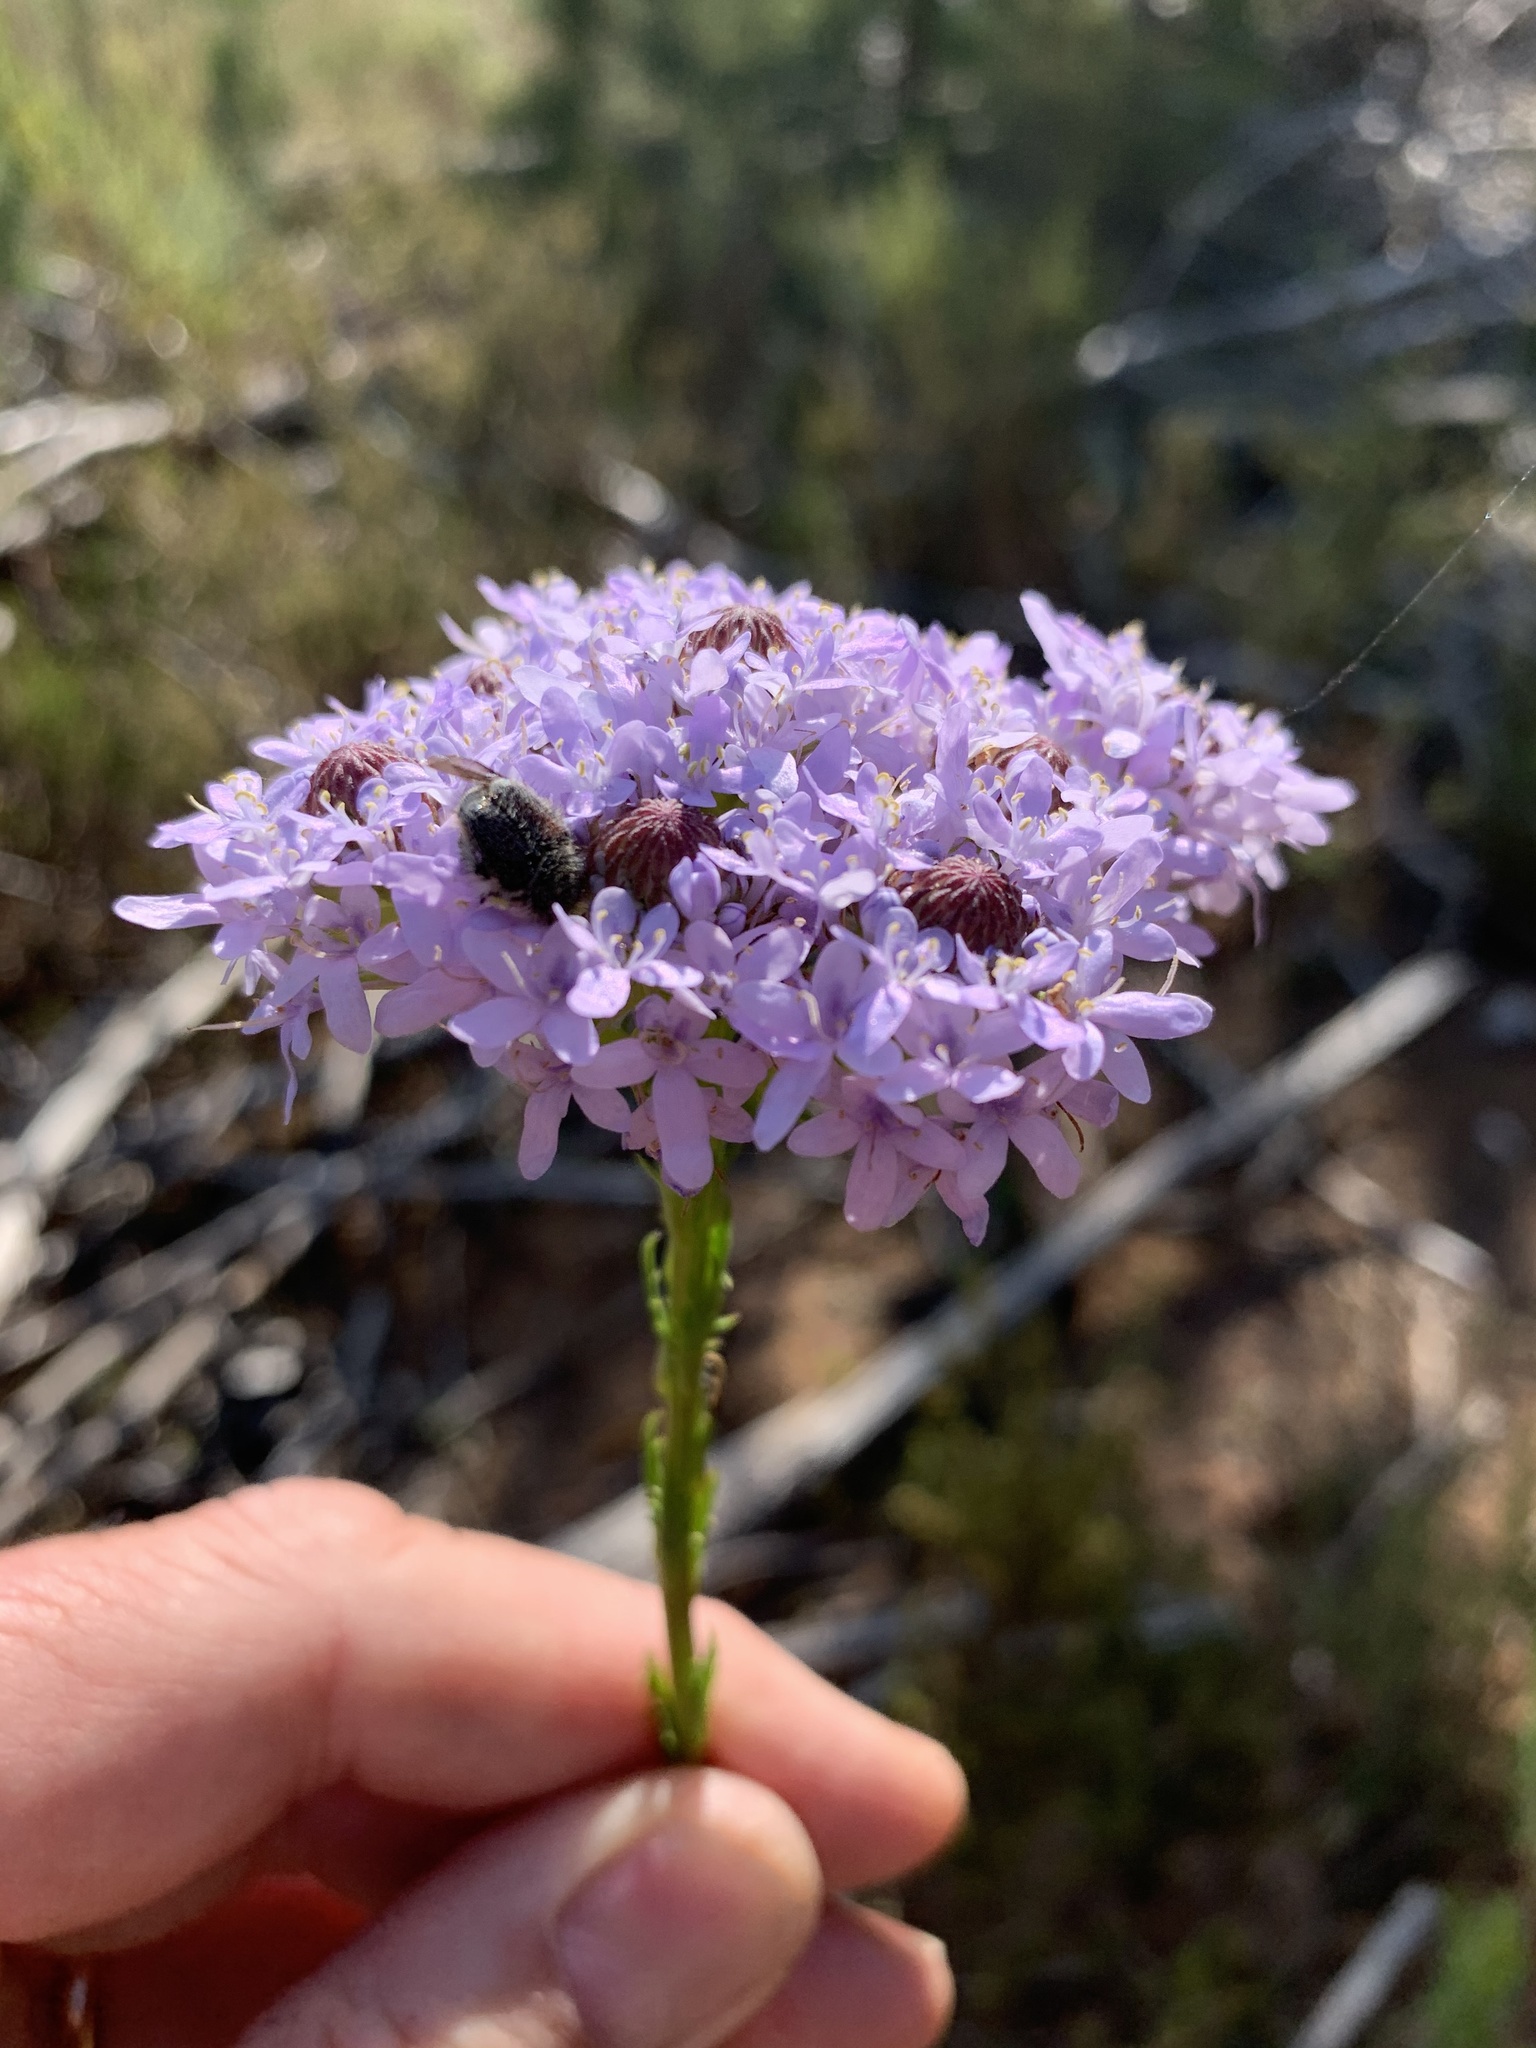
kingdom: Plantae
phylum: Tracheophyta
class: Magnoliopsida
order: Lamiales
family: Scrophulariaceae
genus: Pseudoselago
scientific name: Pseudoselago spuria
